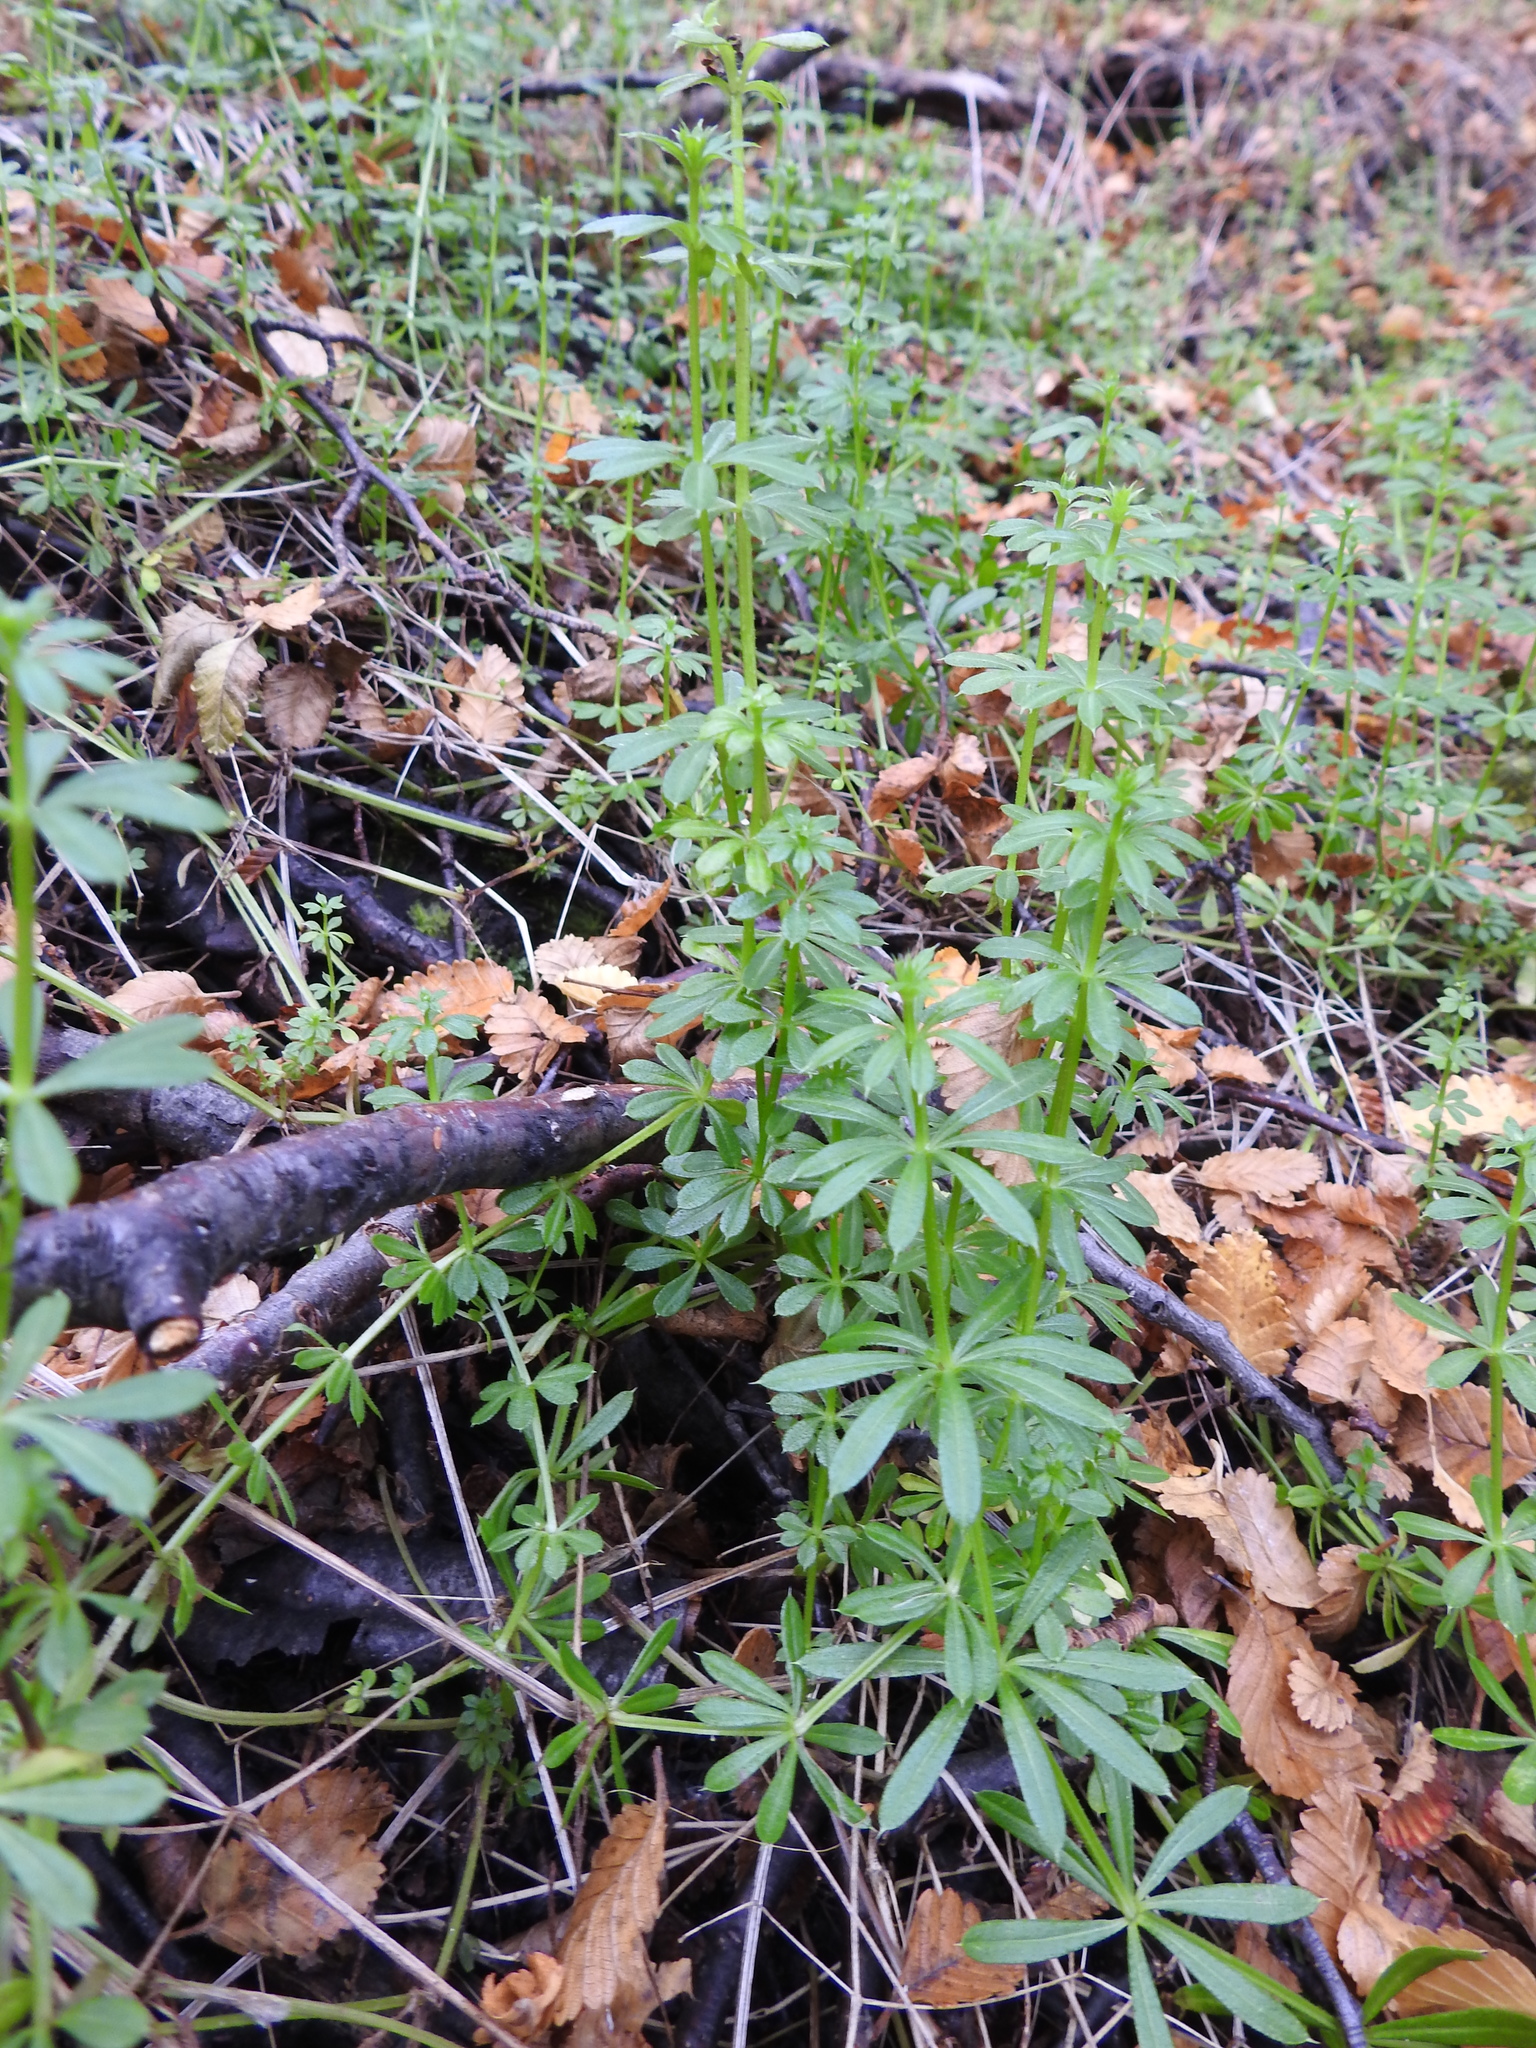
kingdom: Plantae
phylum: Tracheophyta
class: Magnoliopsida
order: Gentianales
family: Rubiaceae
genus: Galium
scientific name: Galium aparine
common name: Cleavers
